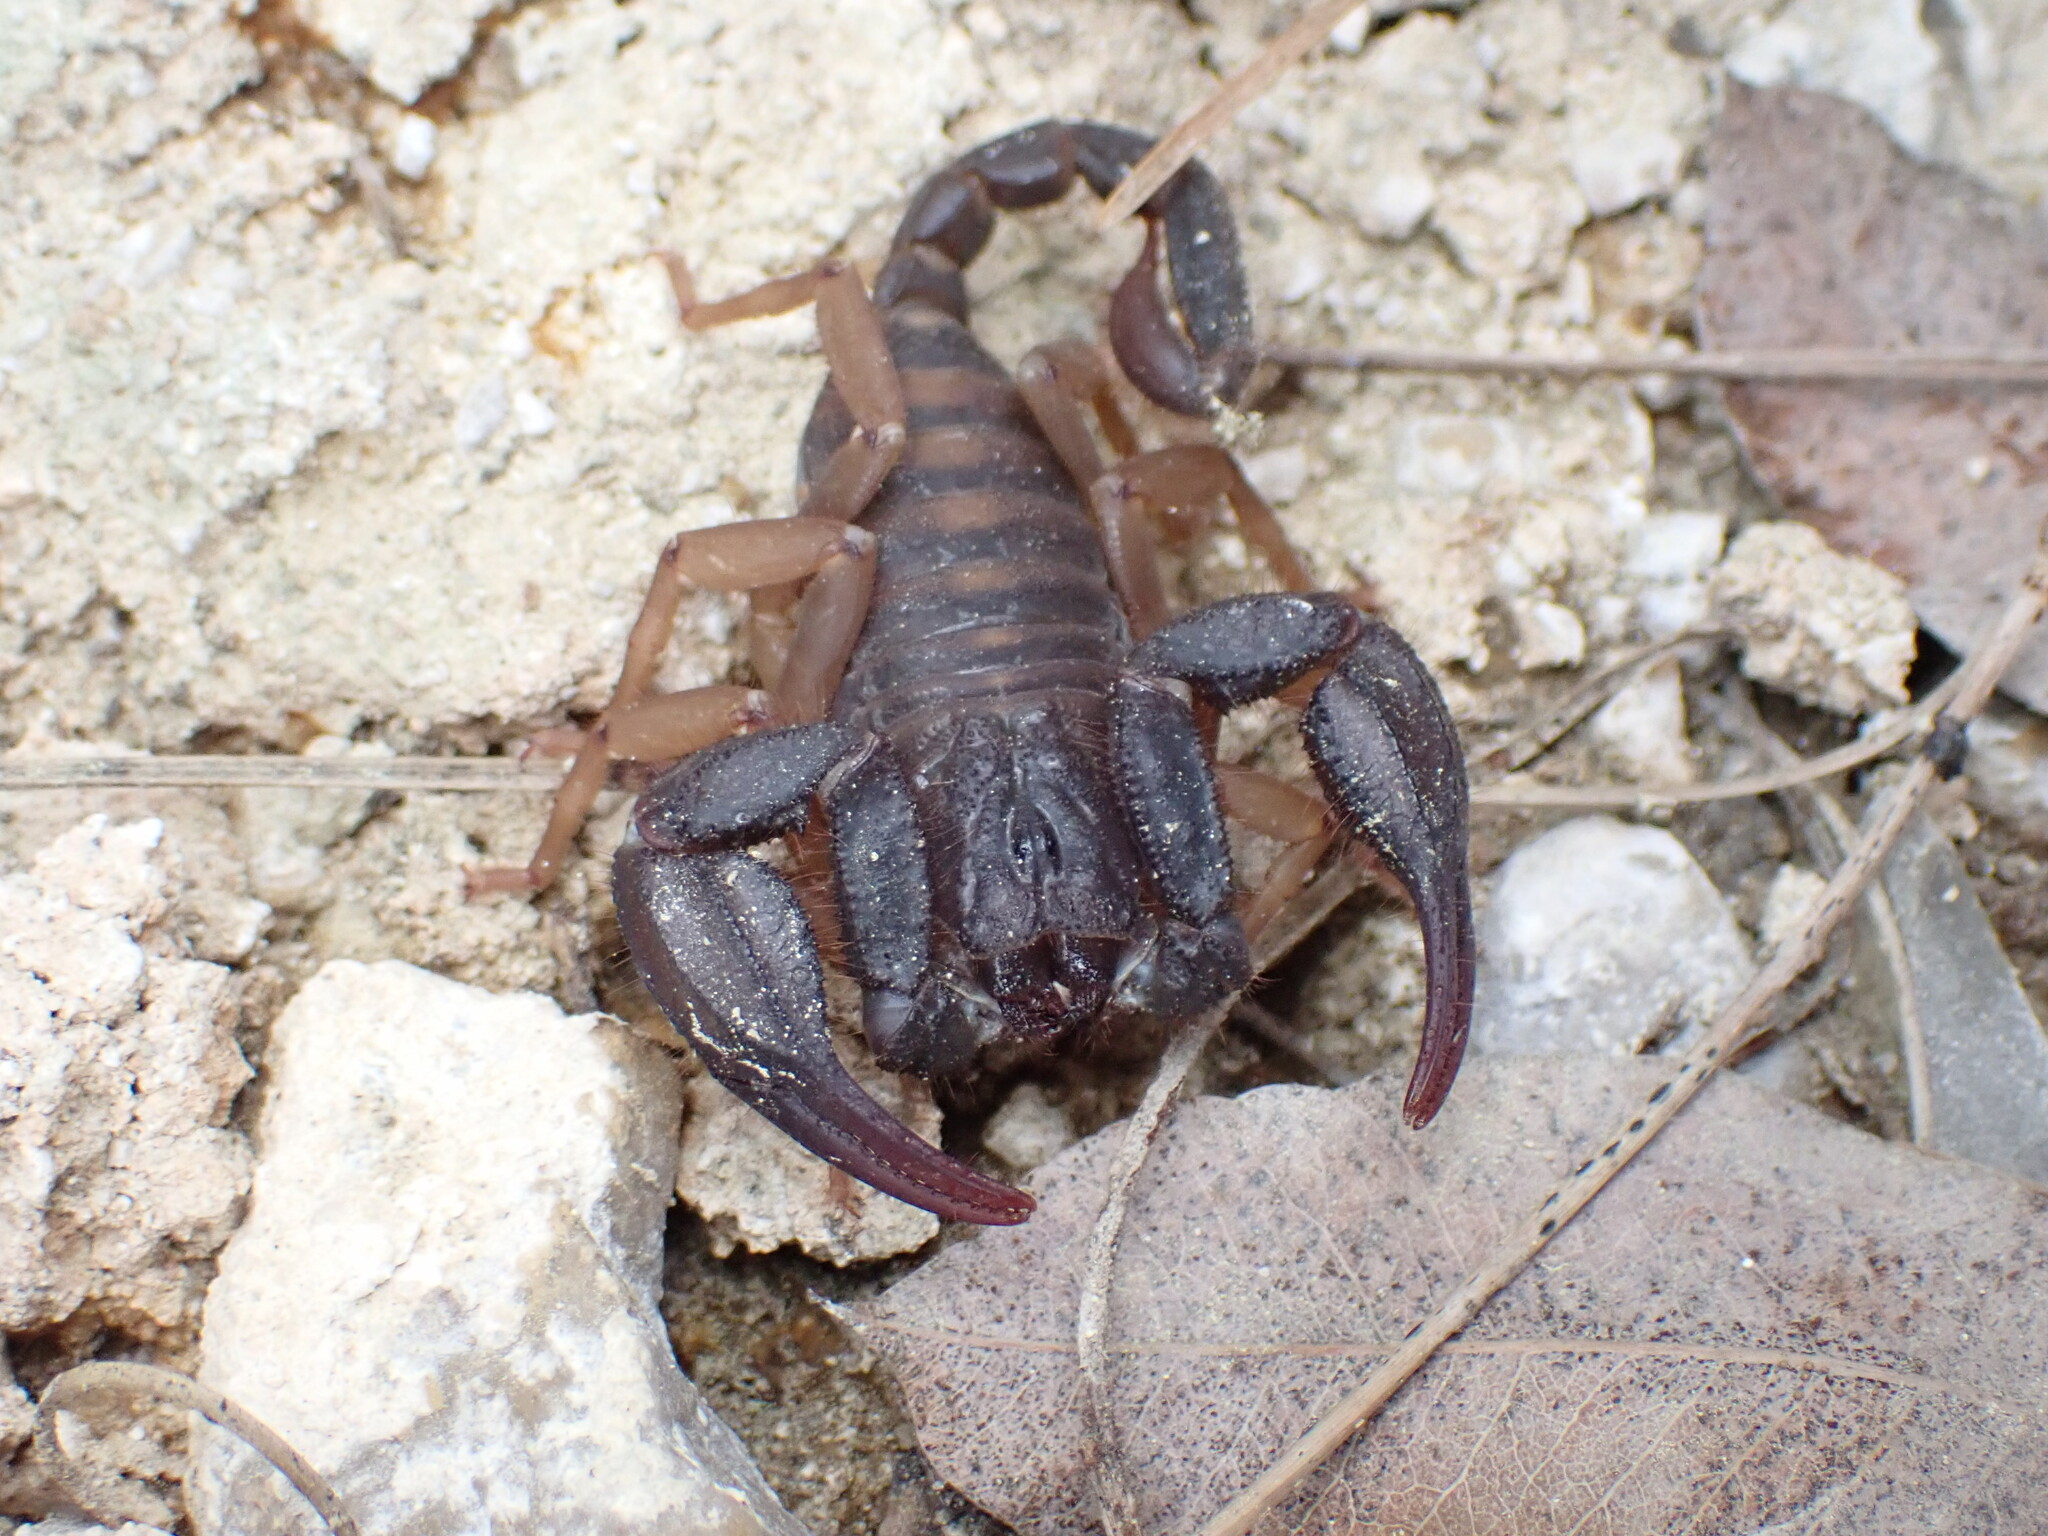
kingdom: Animalia
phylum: Arthropoda
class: Arachnida
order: Scorpiones
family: Iuridae
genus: Anatoliurus
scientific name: Anatoliurus kraepelini
